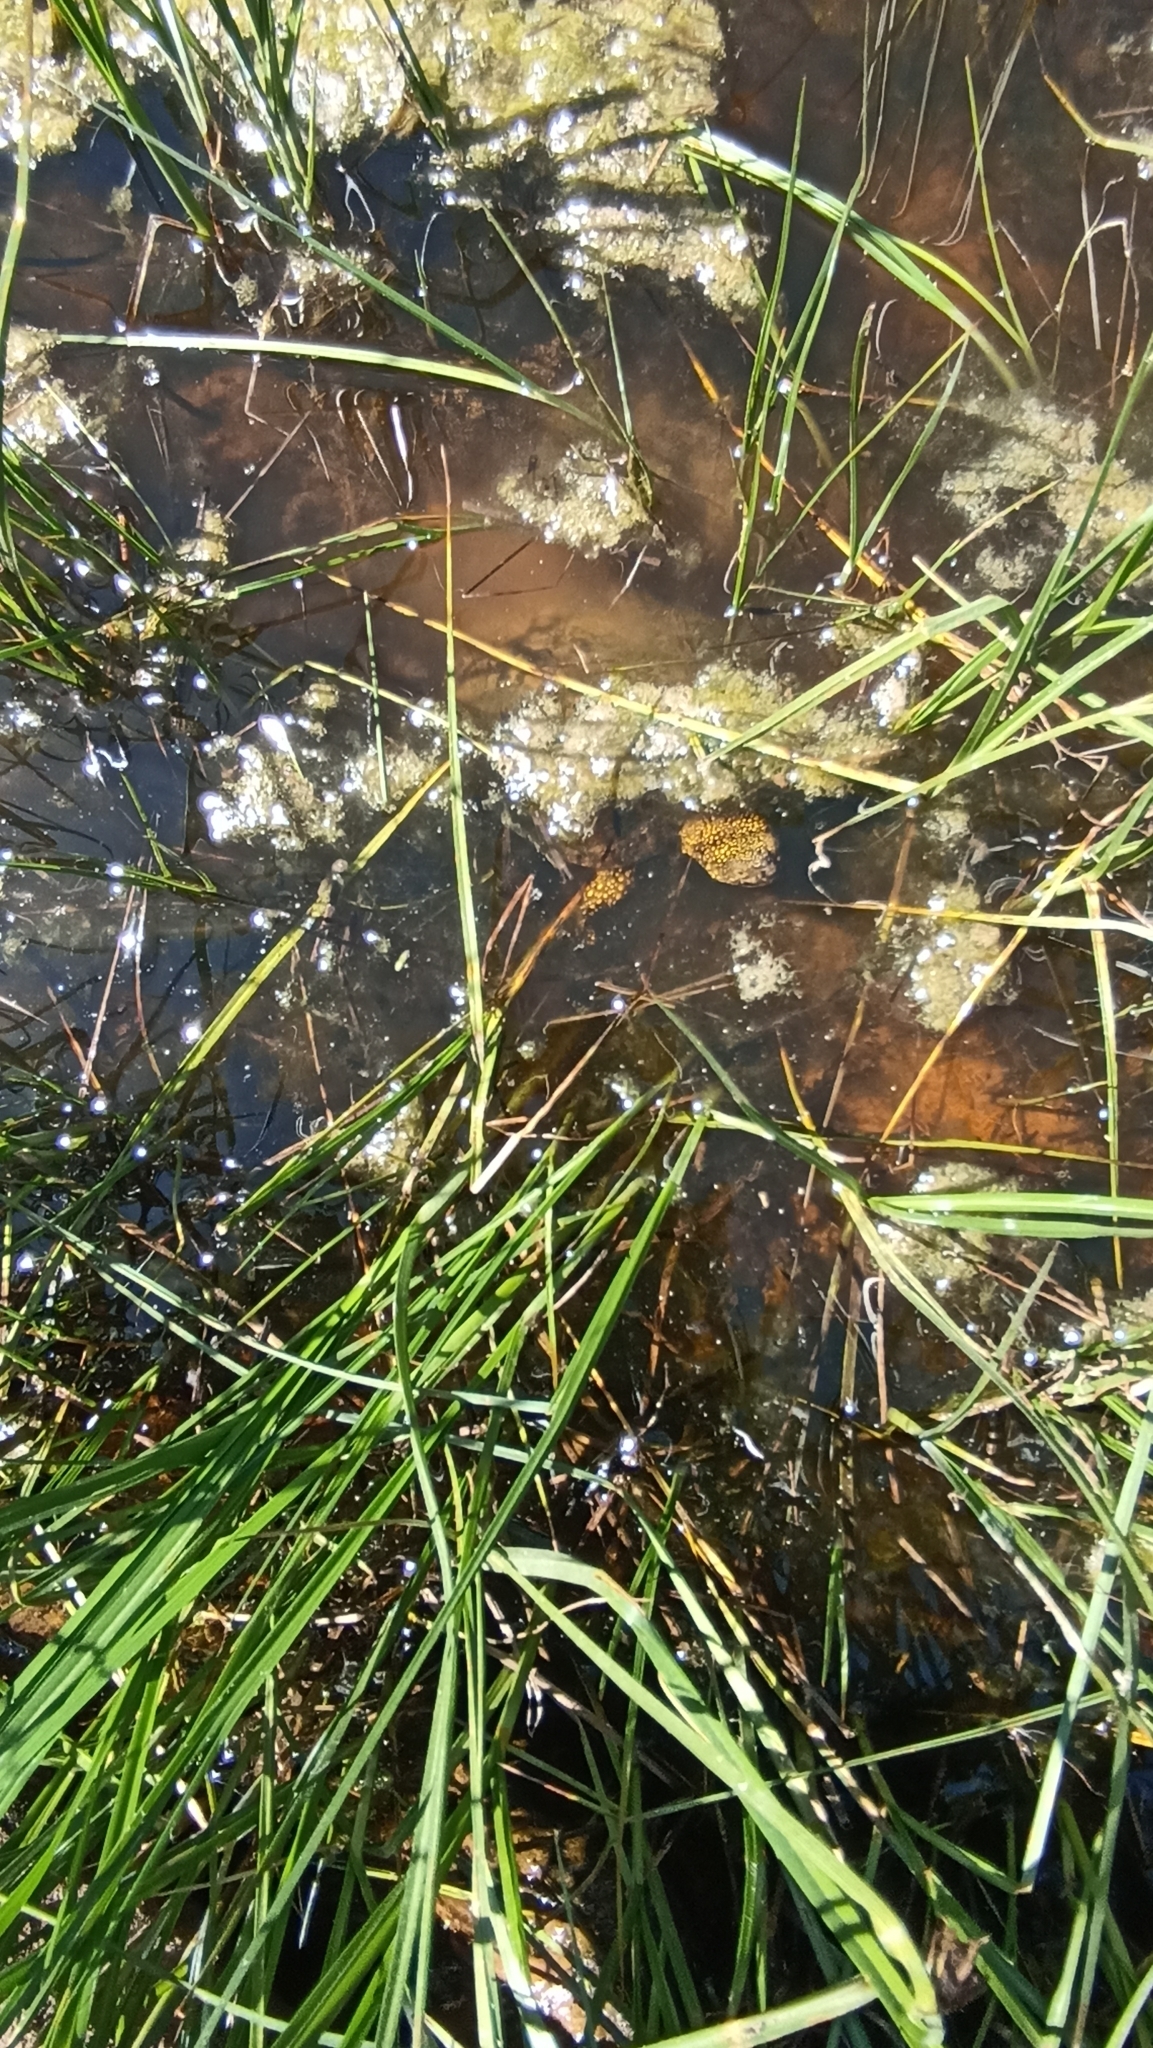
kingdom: Animalia
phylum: Chordata
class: Testudines
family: Emydidae
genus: Emys
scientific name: Emys orbicularis
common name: European pond turtle
